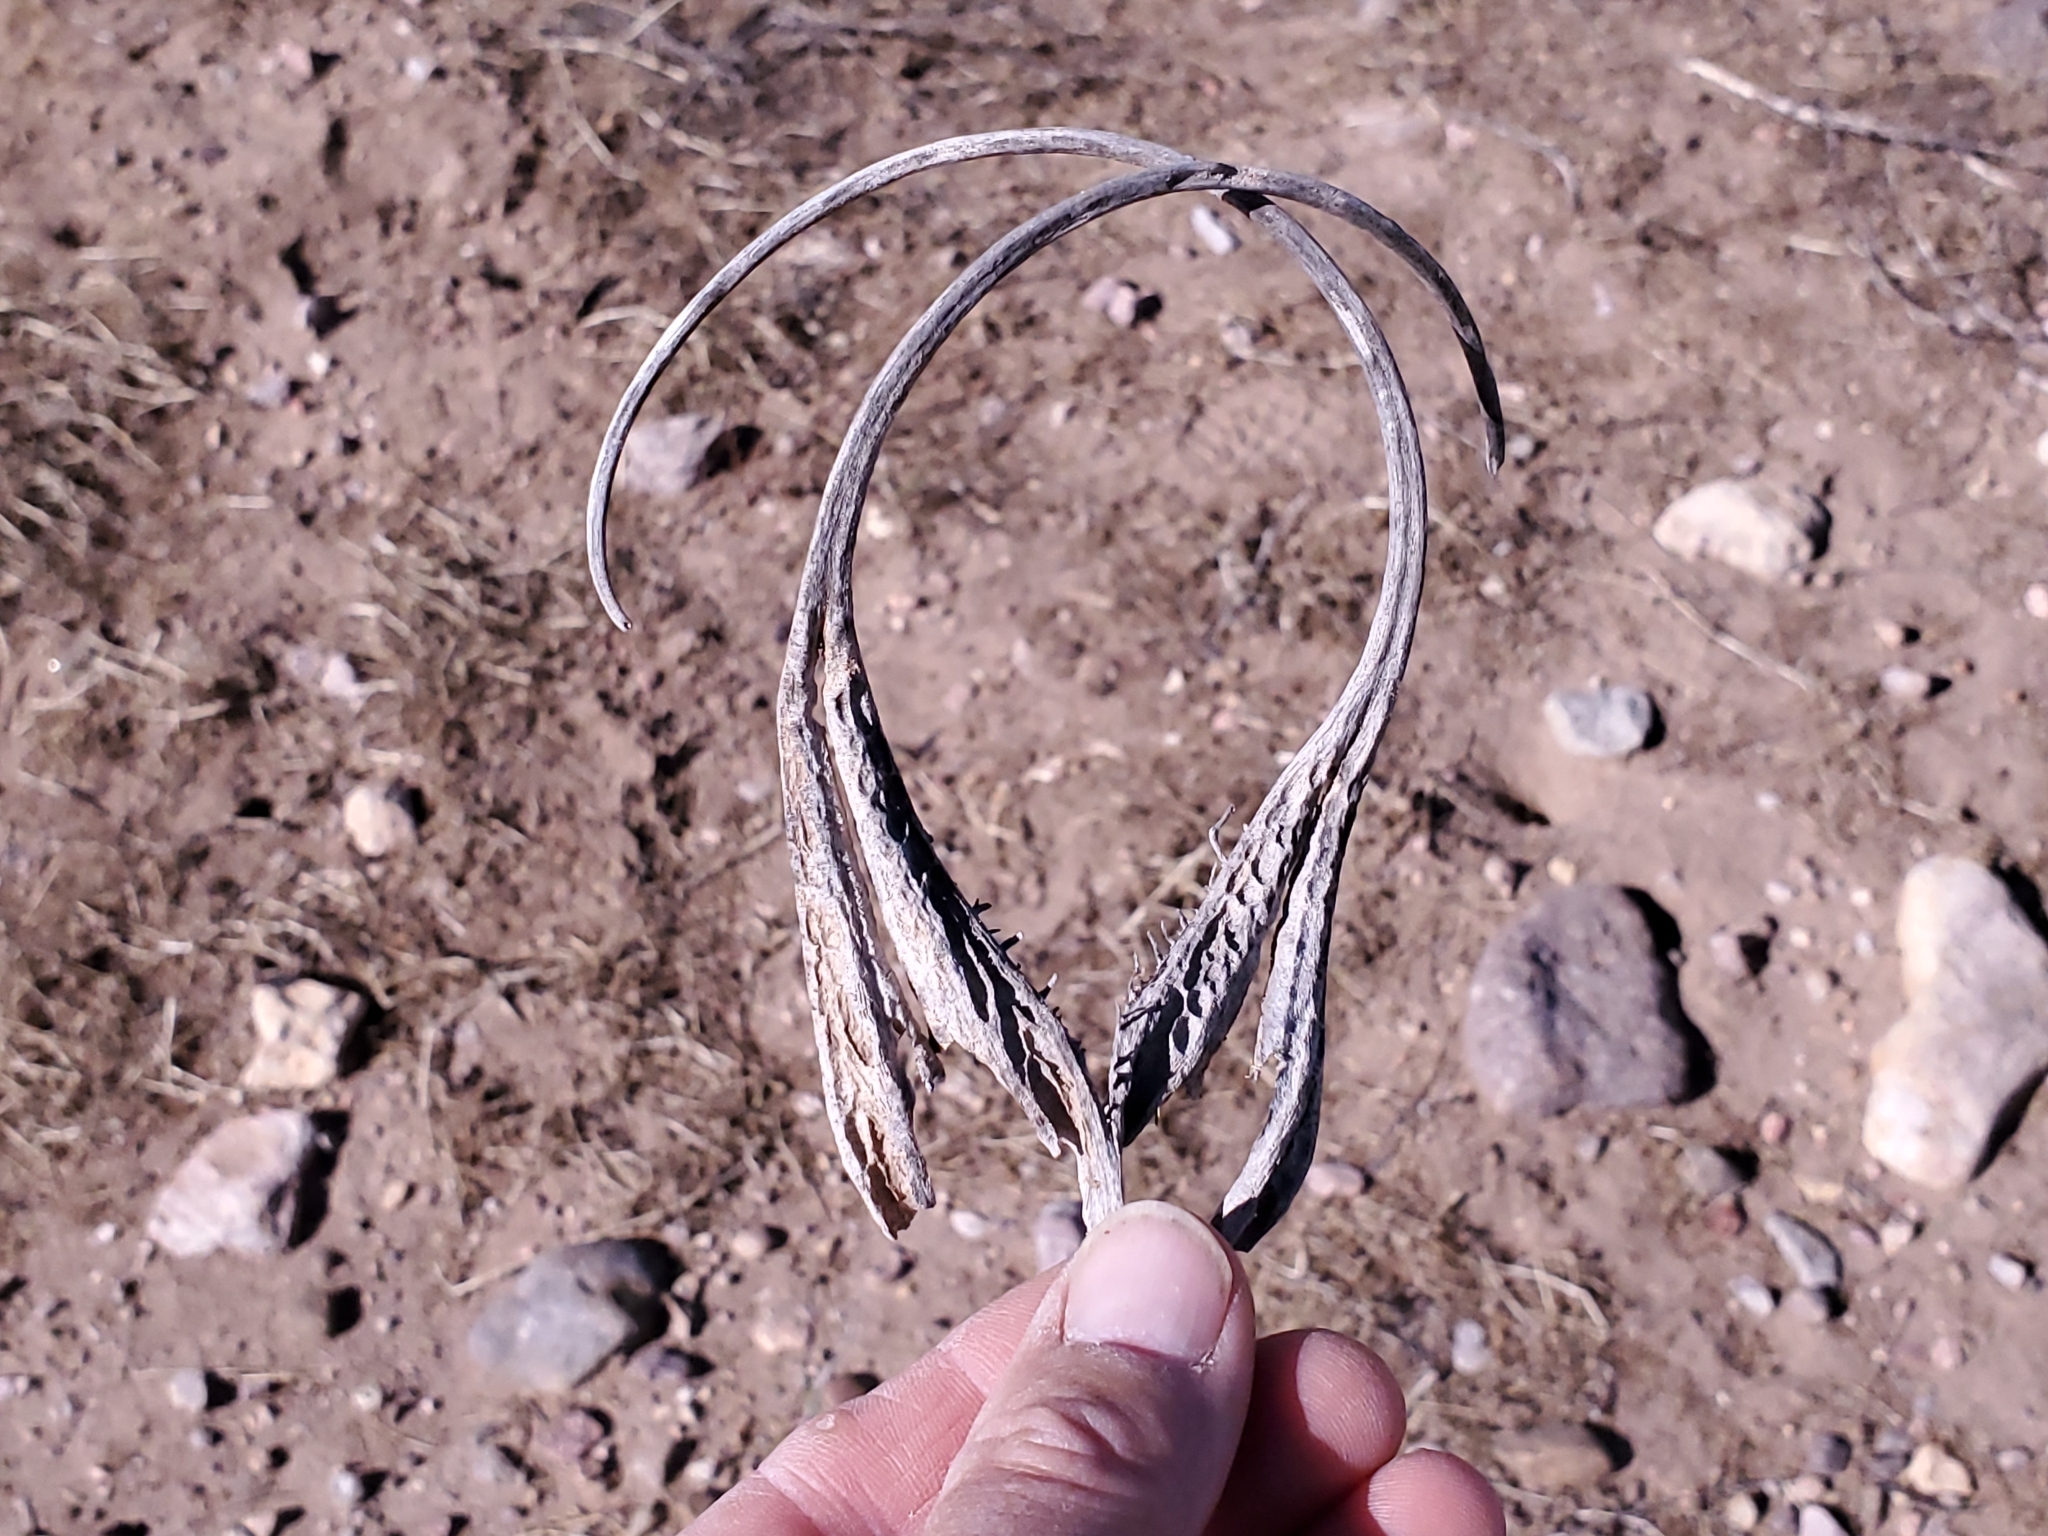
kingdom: Plantae
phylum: Tracheophyta
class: Magnoliopsida
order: Lamiales
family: Martyniaceae
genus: Proboscidea
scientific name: Proboscidea parviflora
